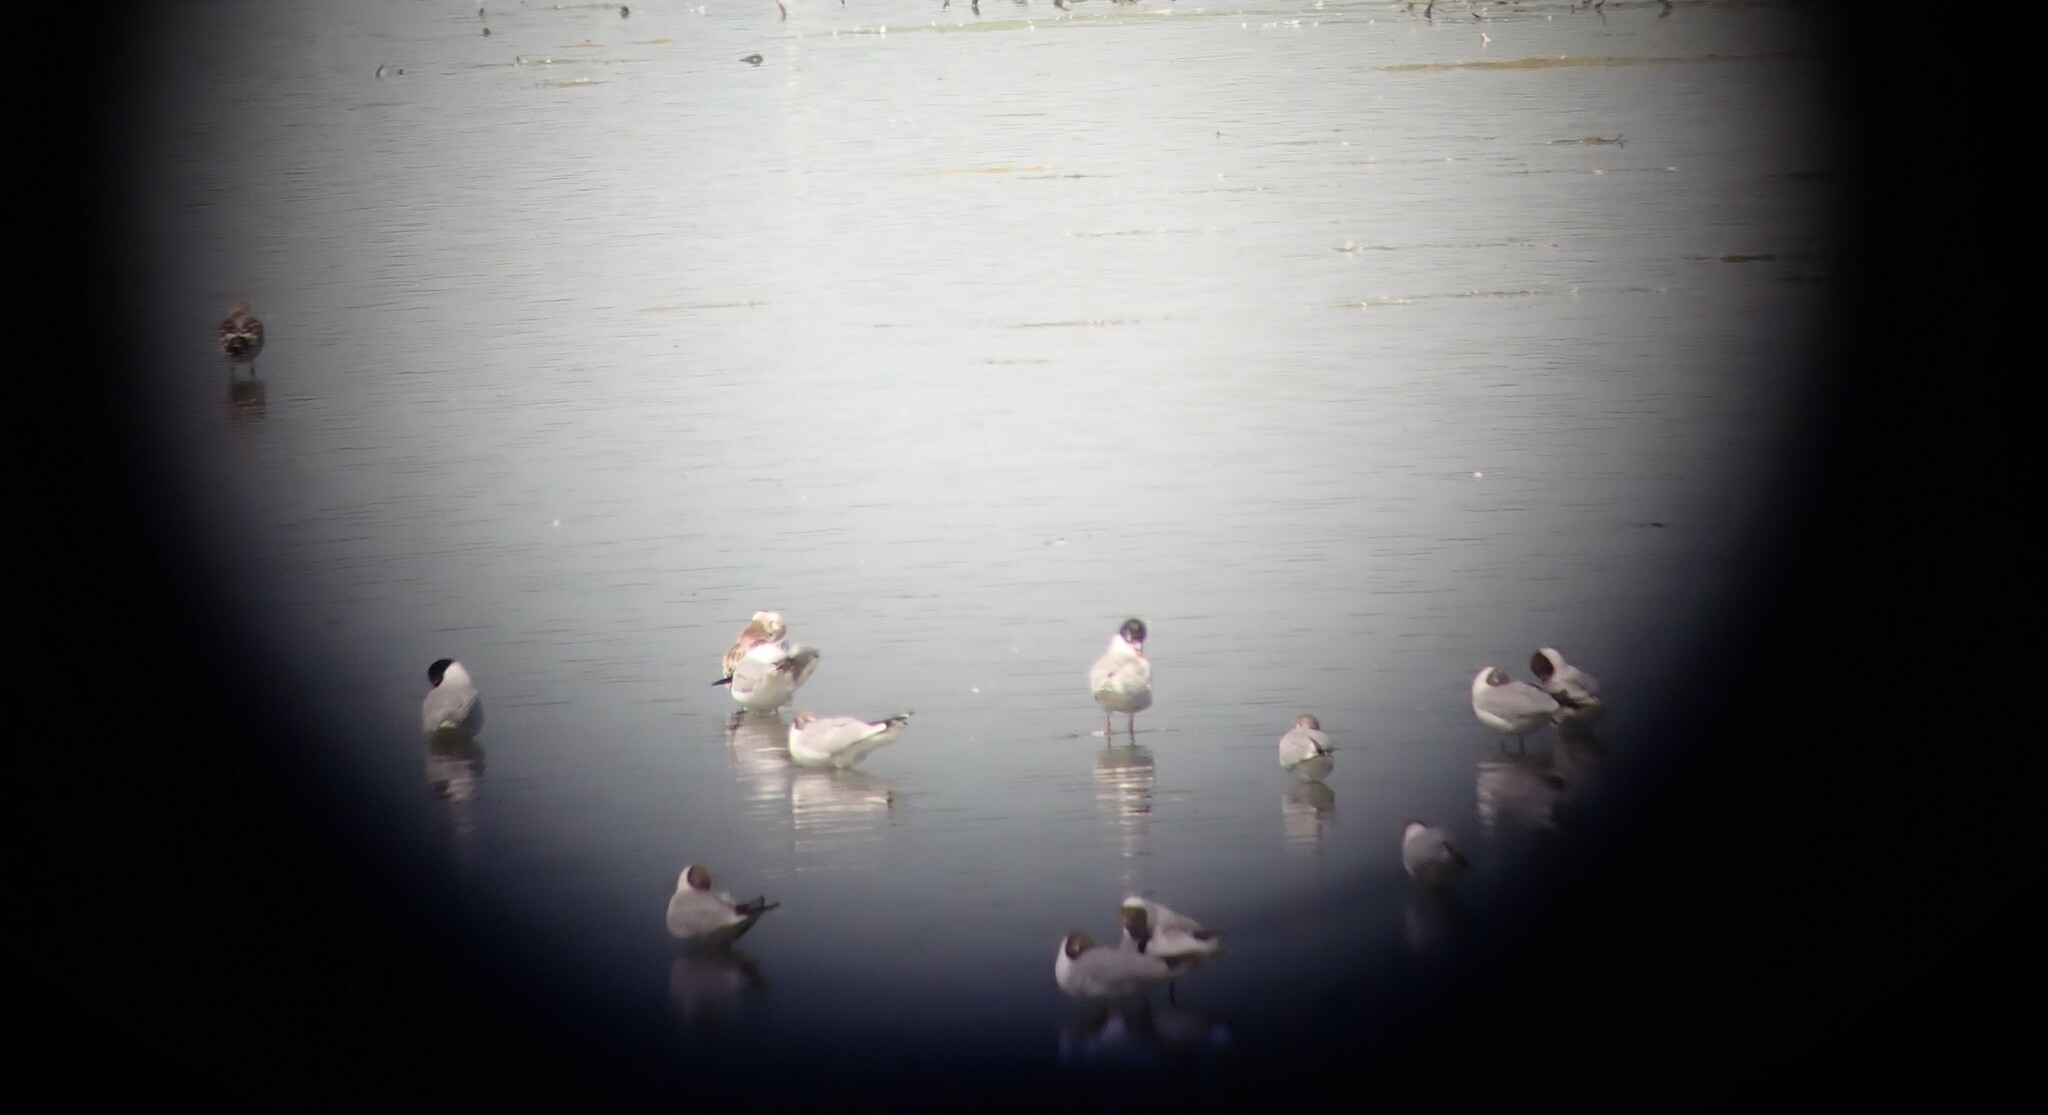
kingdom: Animalia
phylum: Chordata
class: Aves
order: Charadriiformes
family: Laridae
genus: Ichthyaetus
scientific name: Ichthyaetus melanocephalus
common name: Mediterranean gull
